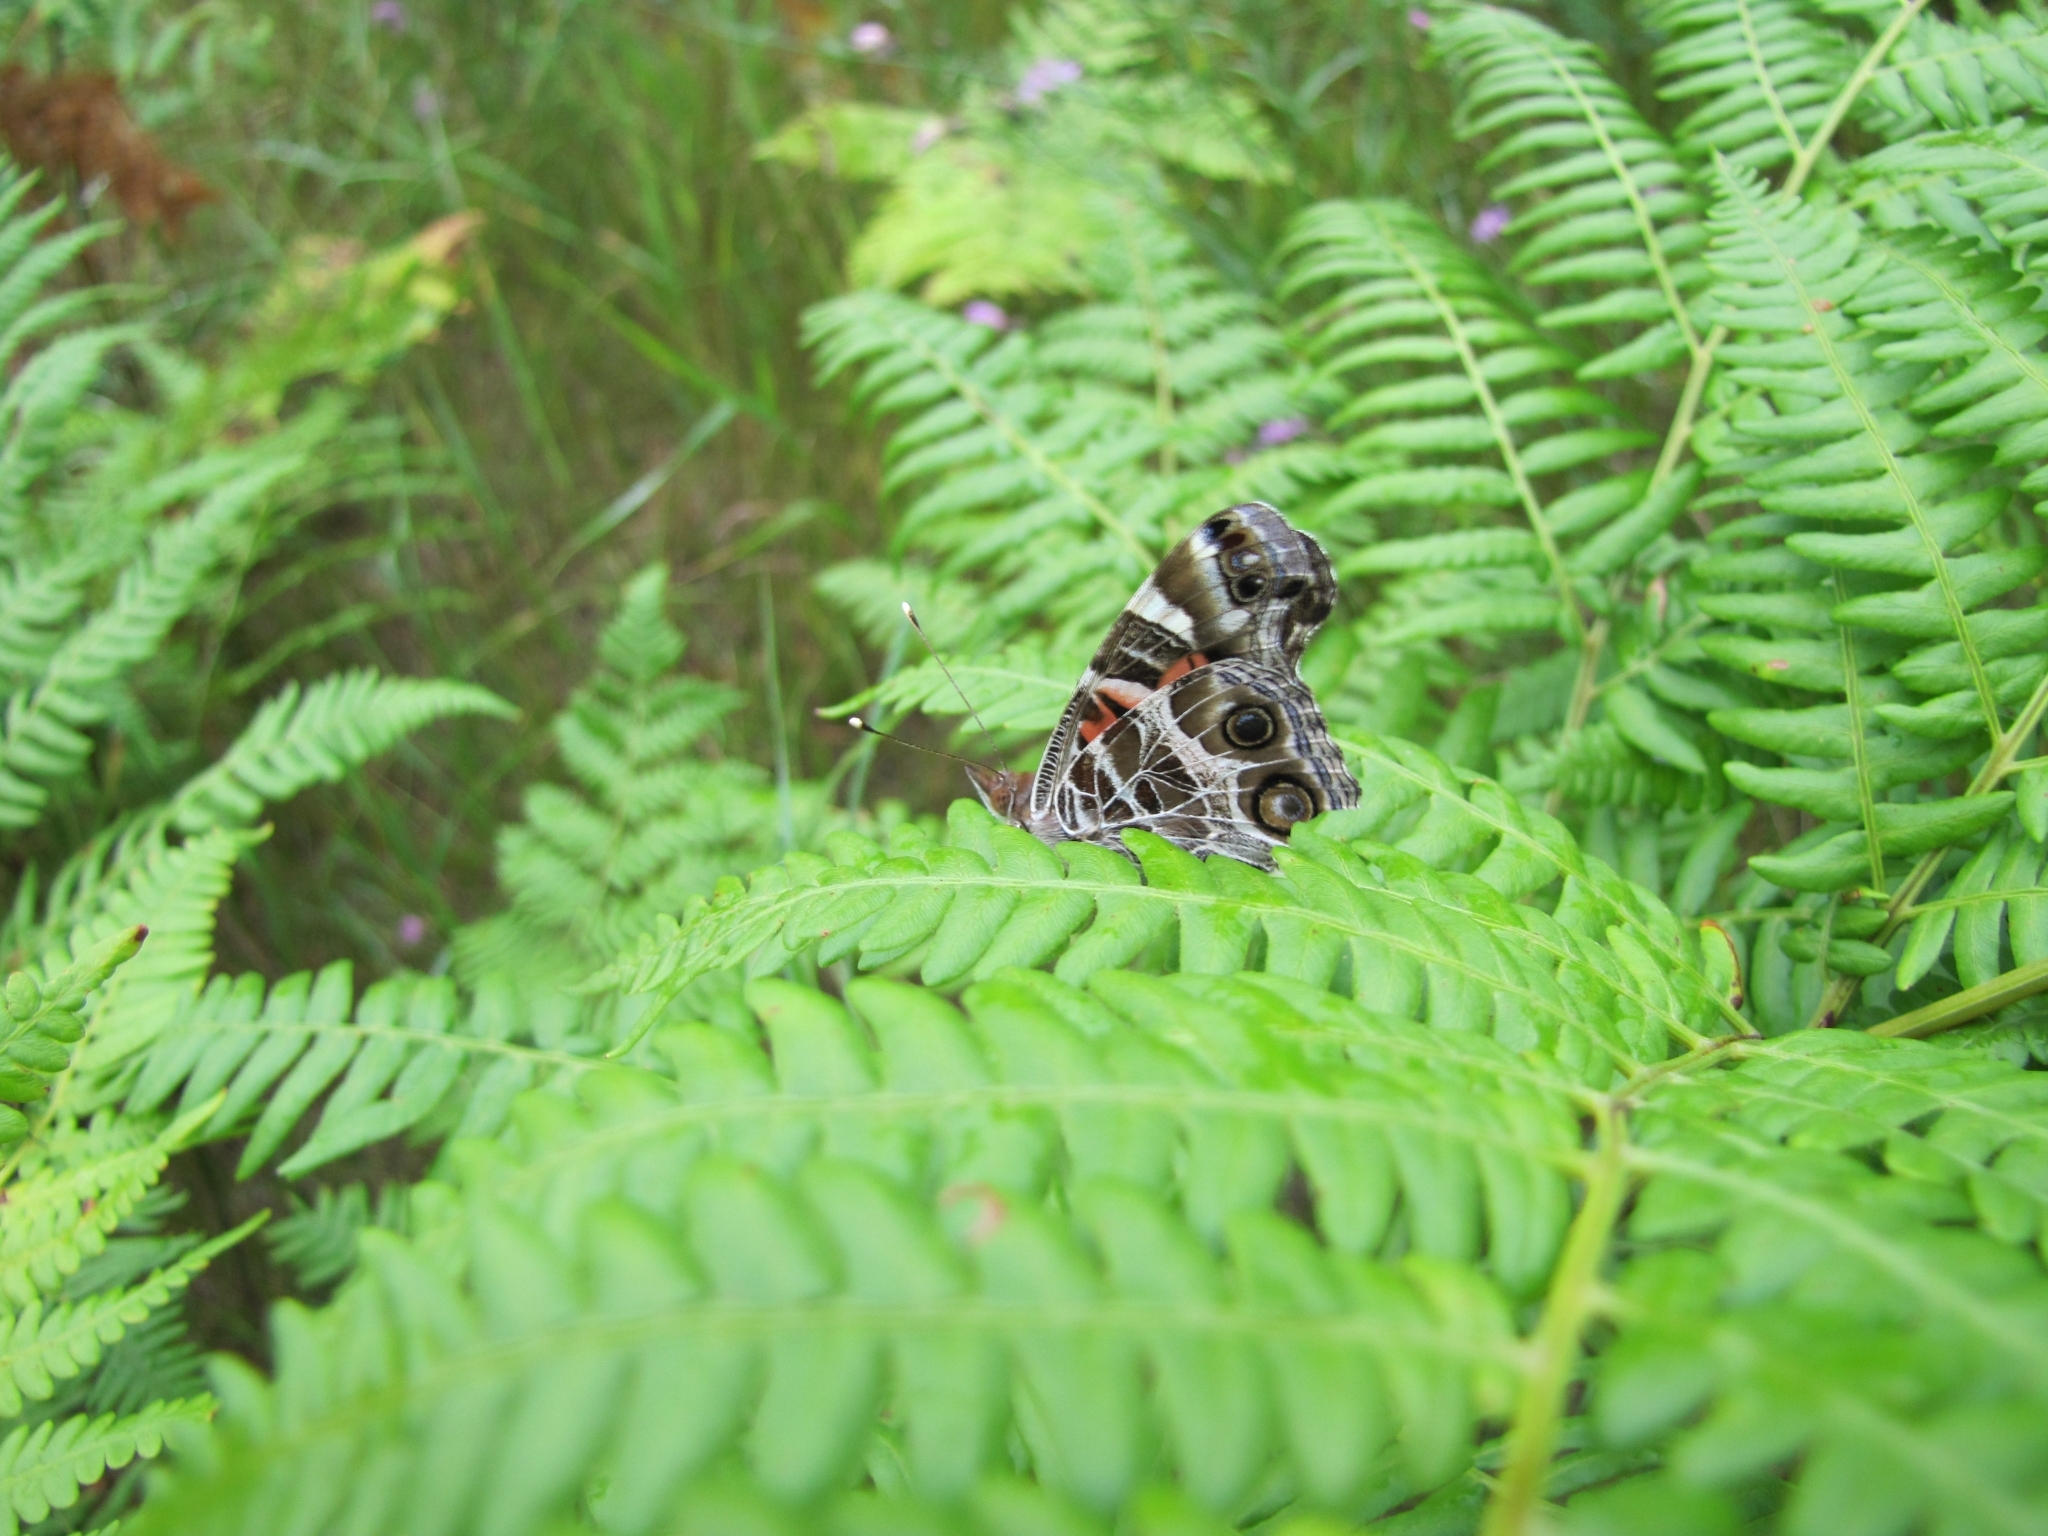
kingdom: Animalia
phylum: Arthropoda
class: Insecta
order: Lepidoptera
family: Nymphalidae
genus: Vanessa
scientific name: Vanessa virginiensis
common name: American lady
